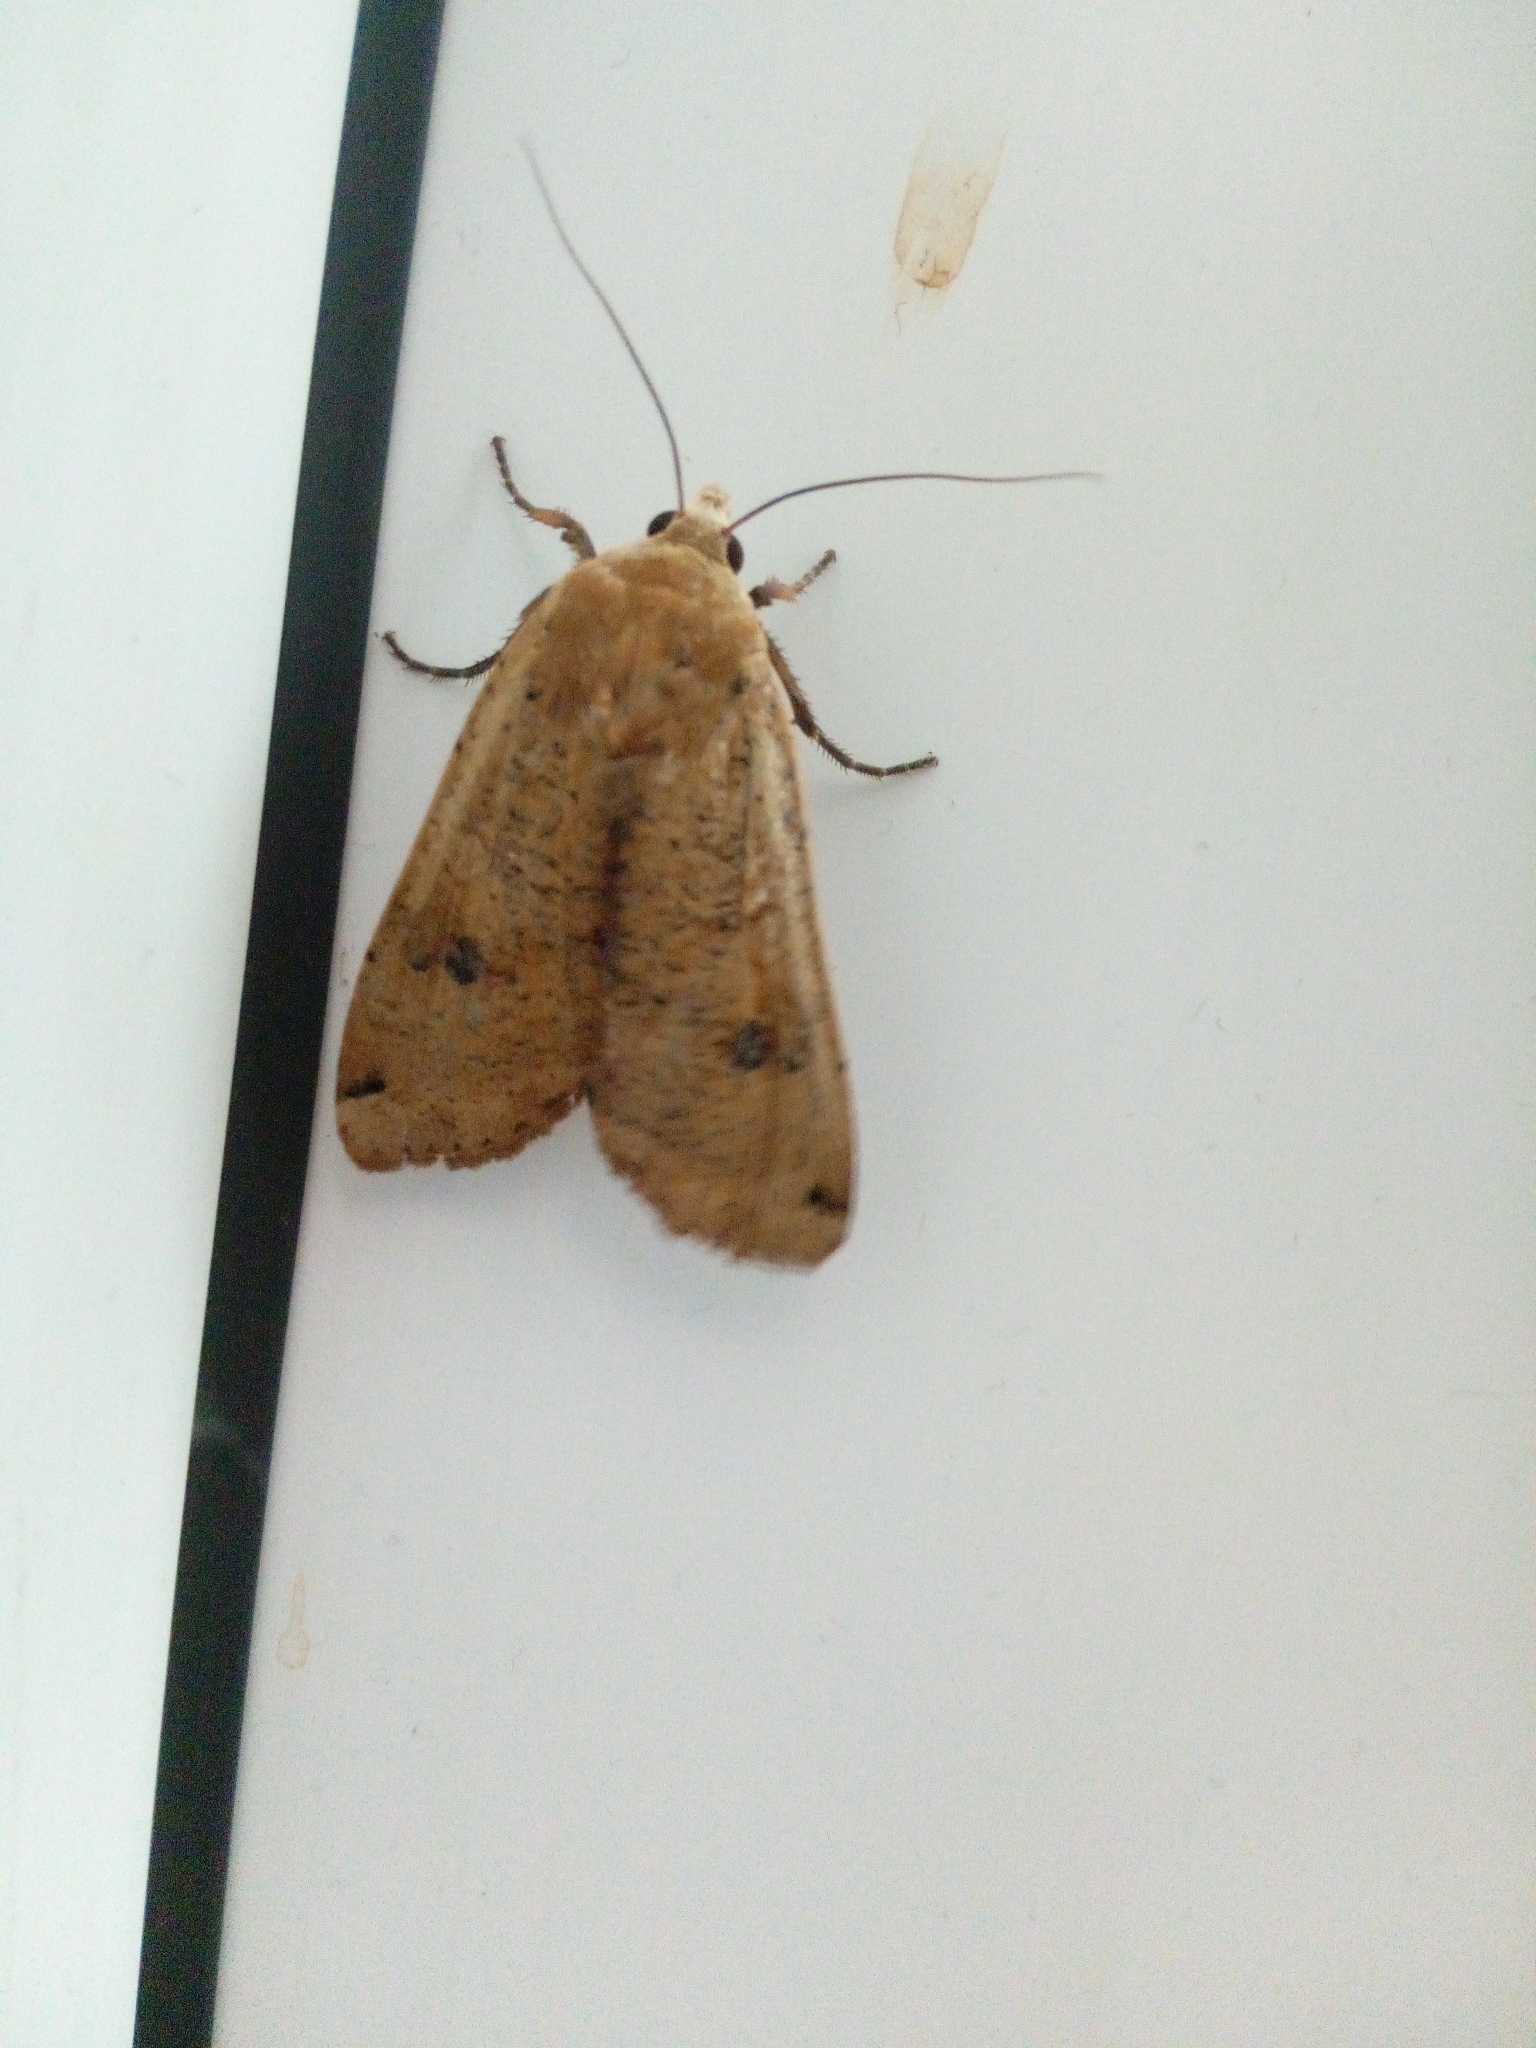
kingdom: Animalia
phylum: Arthropoda
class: Insecta
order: Lepidoptera
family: Noctuidae
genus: Noctua
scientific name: Noctua pronuba
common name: Large yellow underwing
